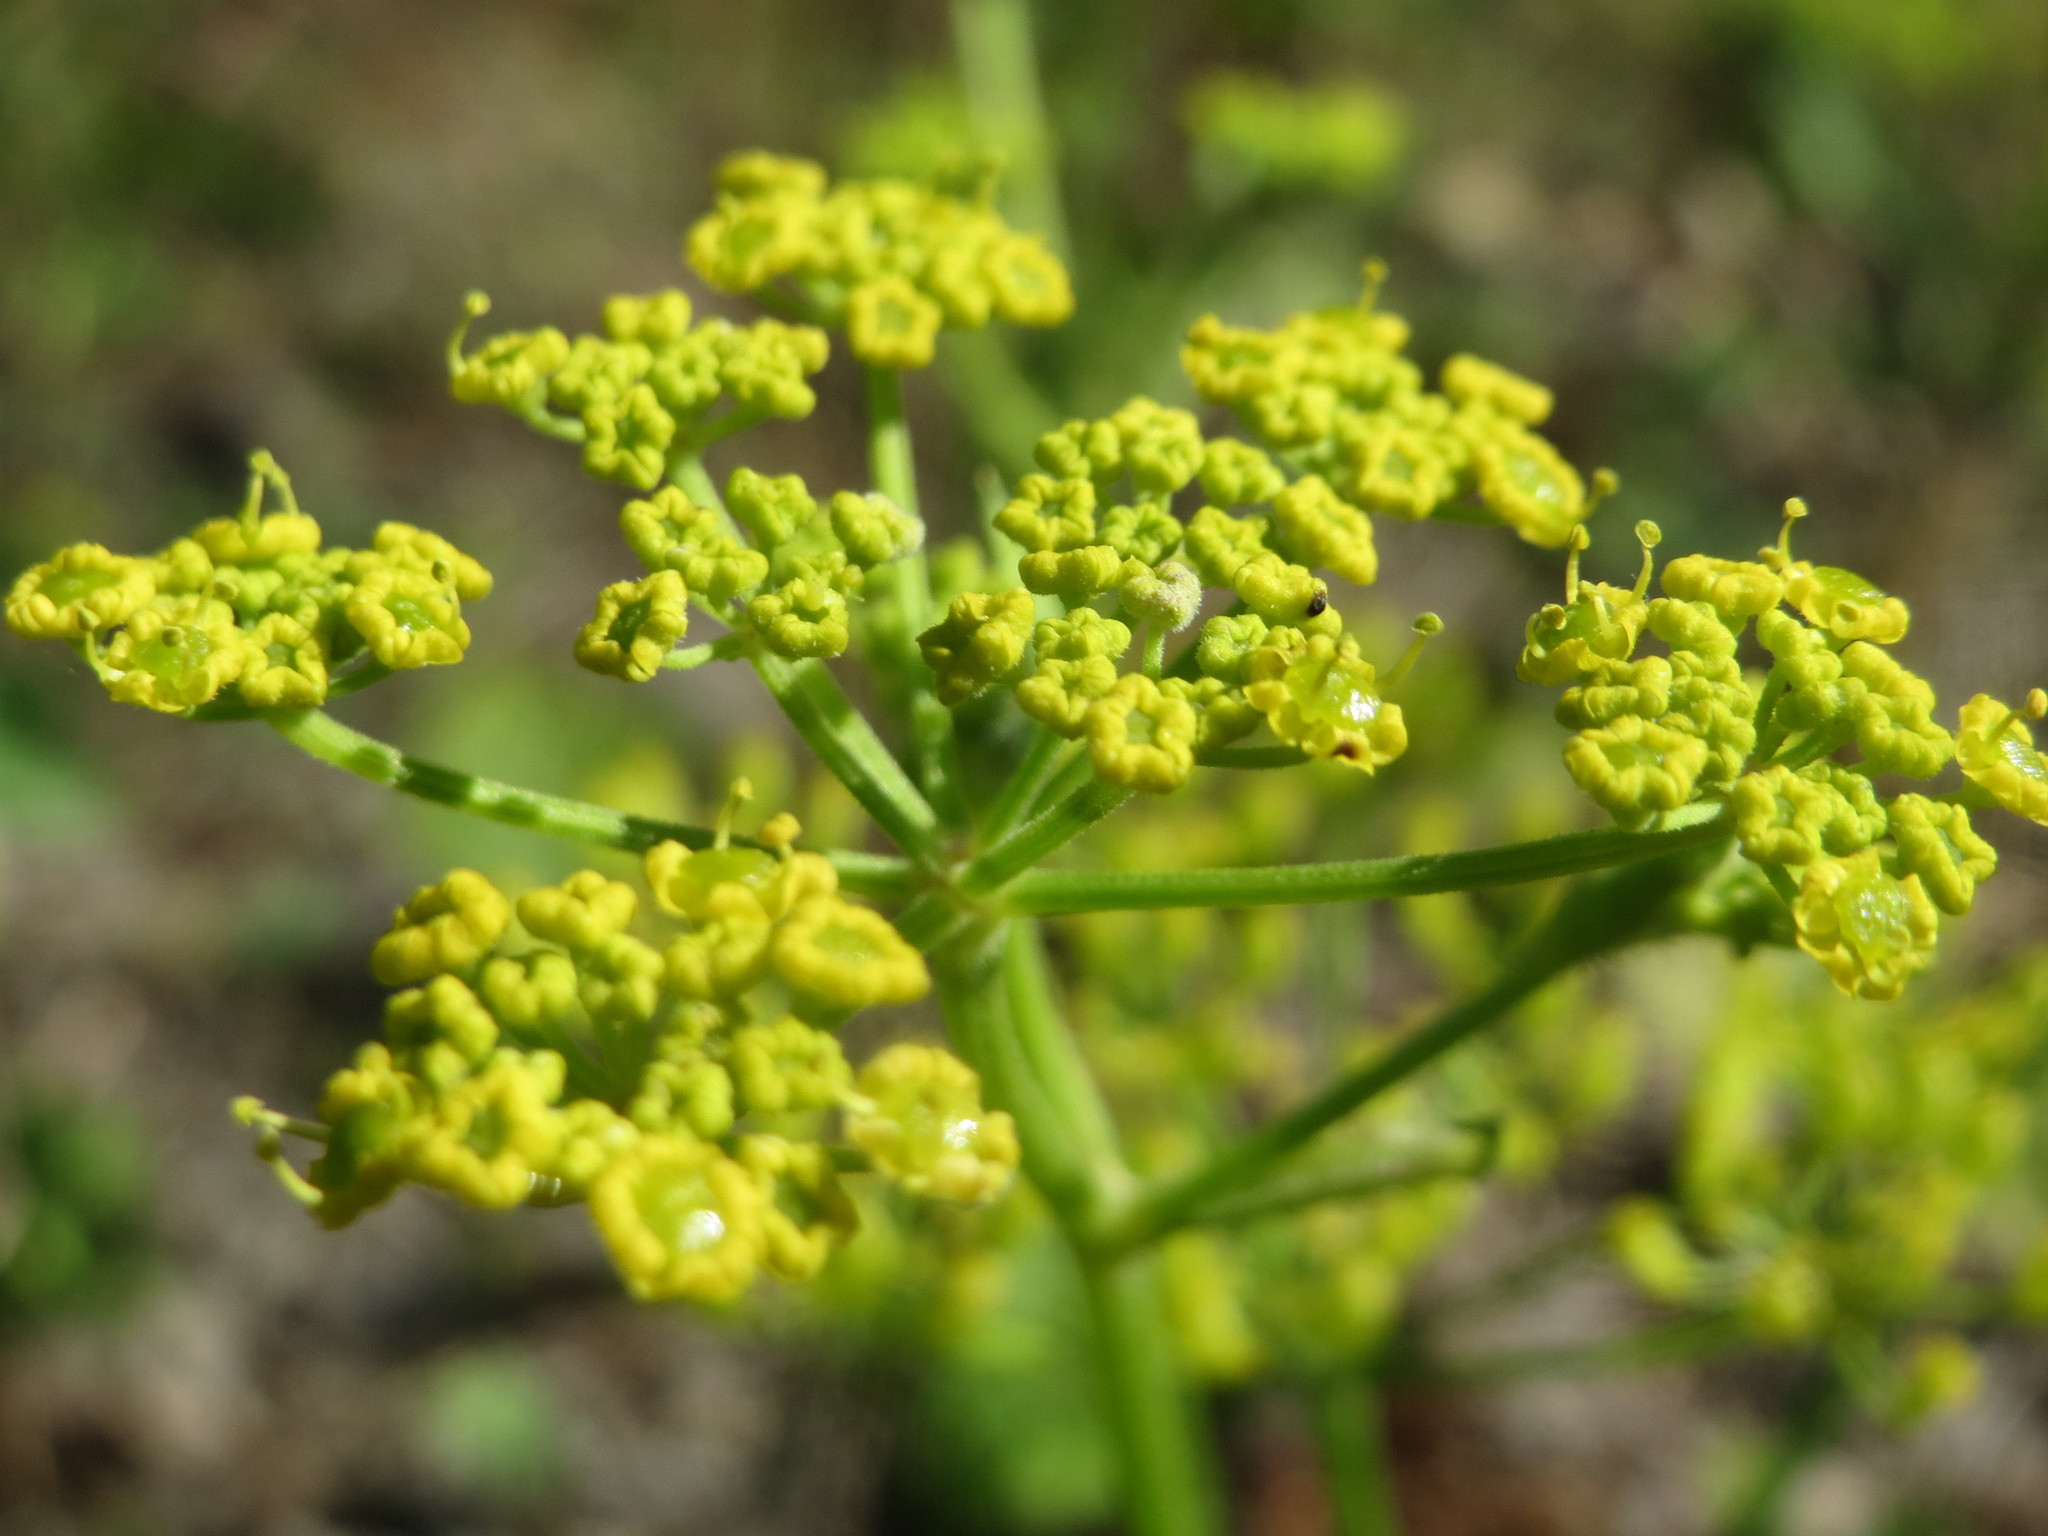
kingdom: Plantae
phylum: Tracheophyta
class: Magnoliopsida
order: Apiales
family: Apiaceae
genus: Pastinaca
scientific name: Pastinaca sativa
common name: Wild parsnip
